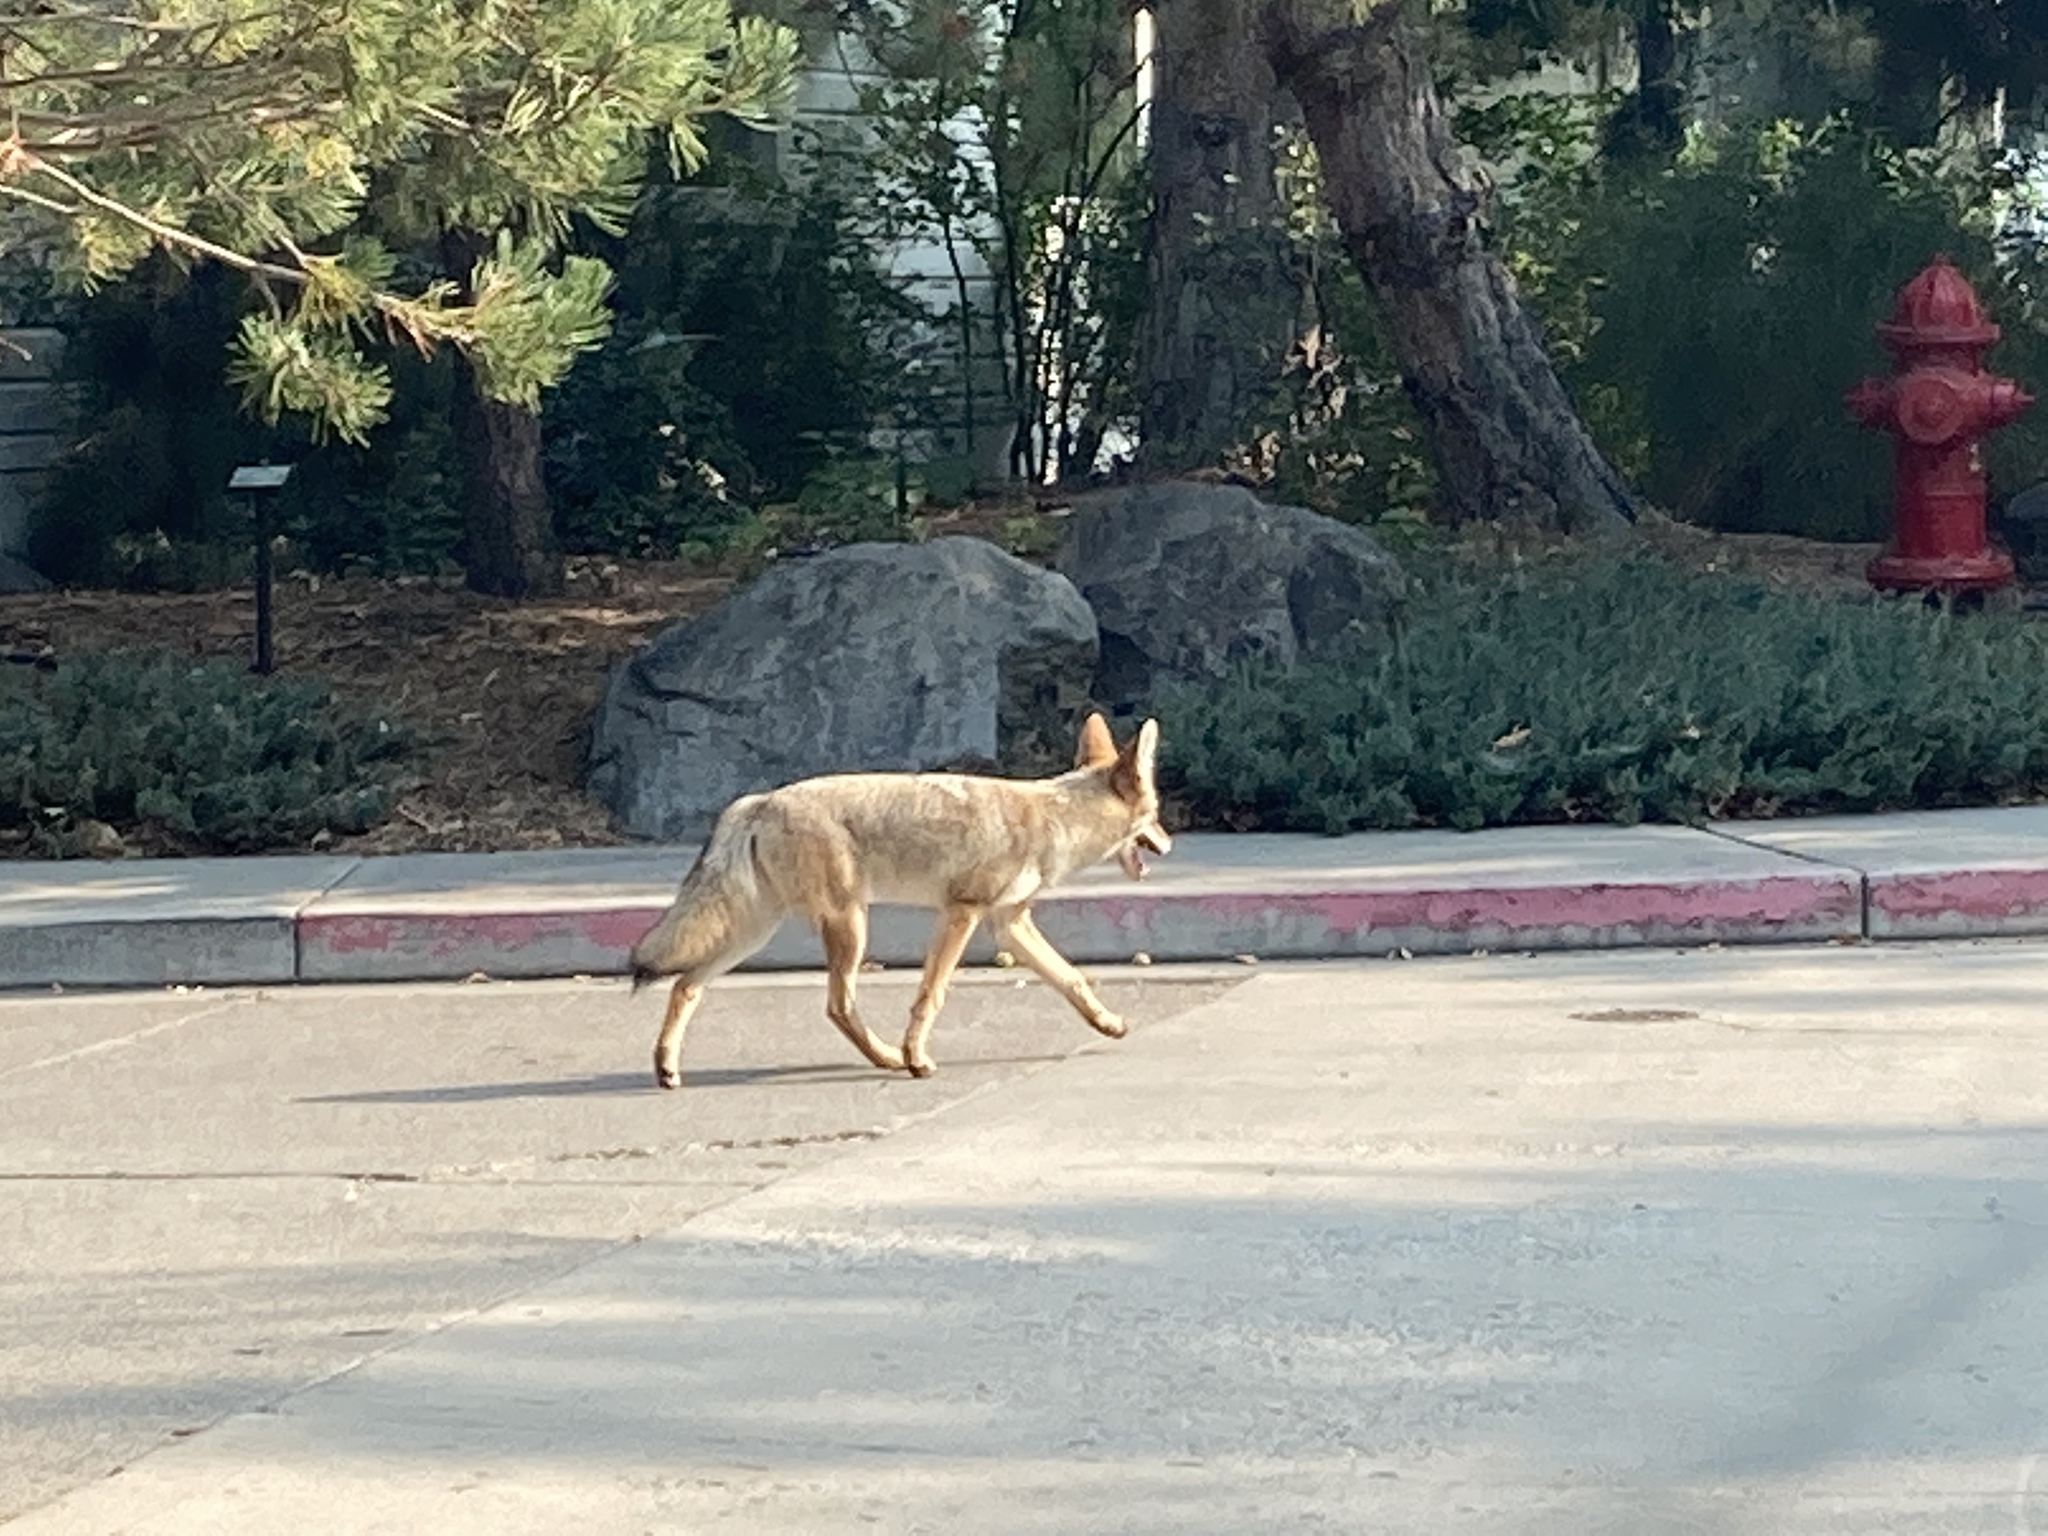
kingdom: Animalia
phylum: Chordata
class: Mammalia
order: Carnivora
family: Canidae
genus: Canis
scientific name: Canis latrans
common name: Coyote
